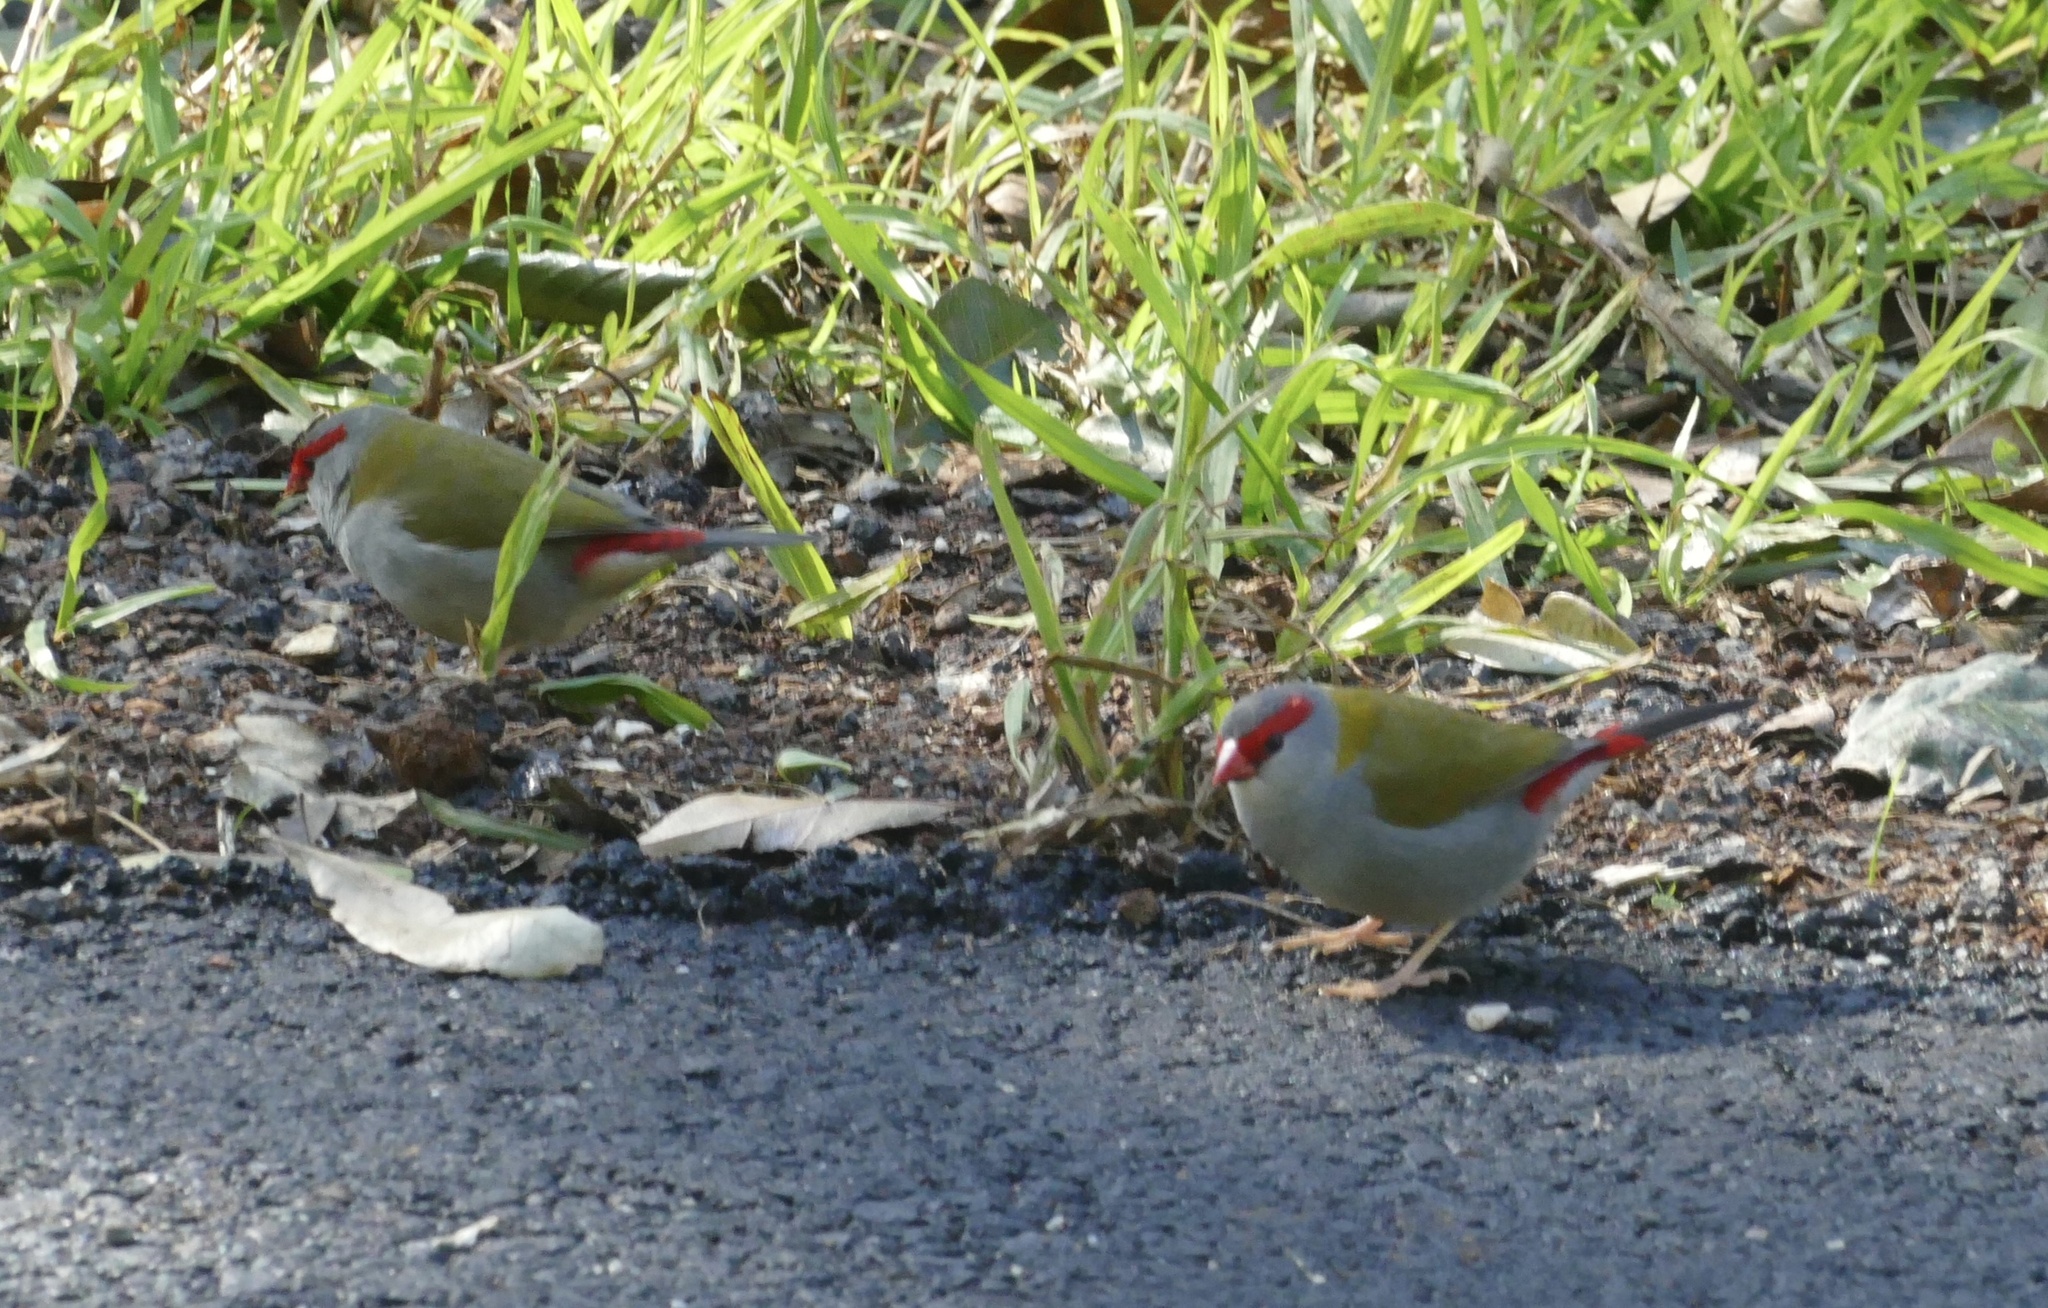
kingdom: Animalia
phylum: Chordata
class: Aves
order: Passeriformes
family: Estrildidae
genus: Neochmia
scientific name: Neochmia temporalis
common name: Red-browed finch
